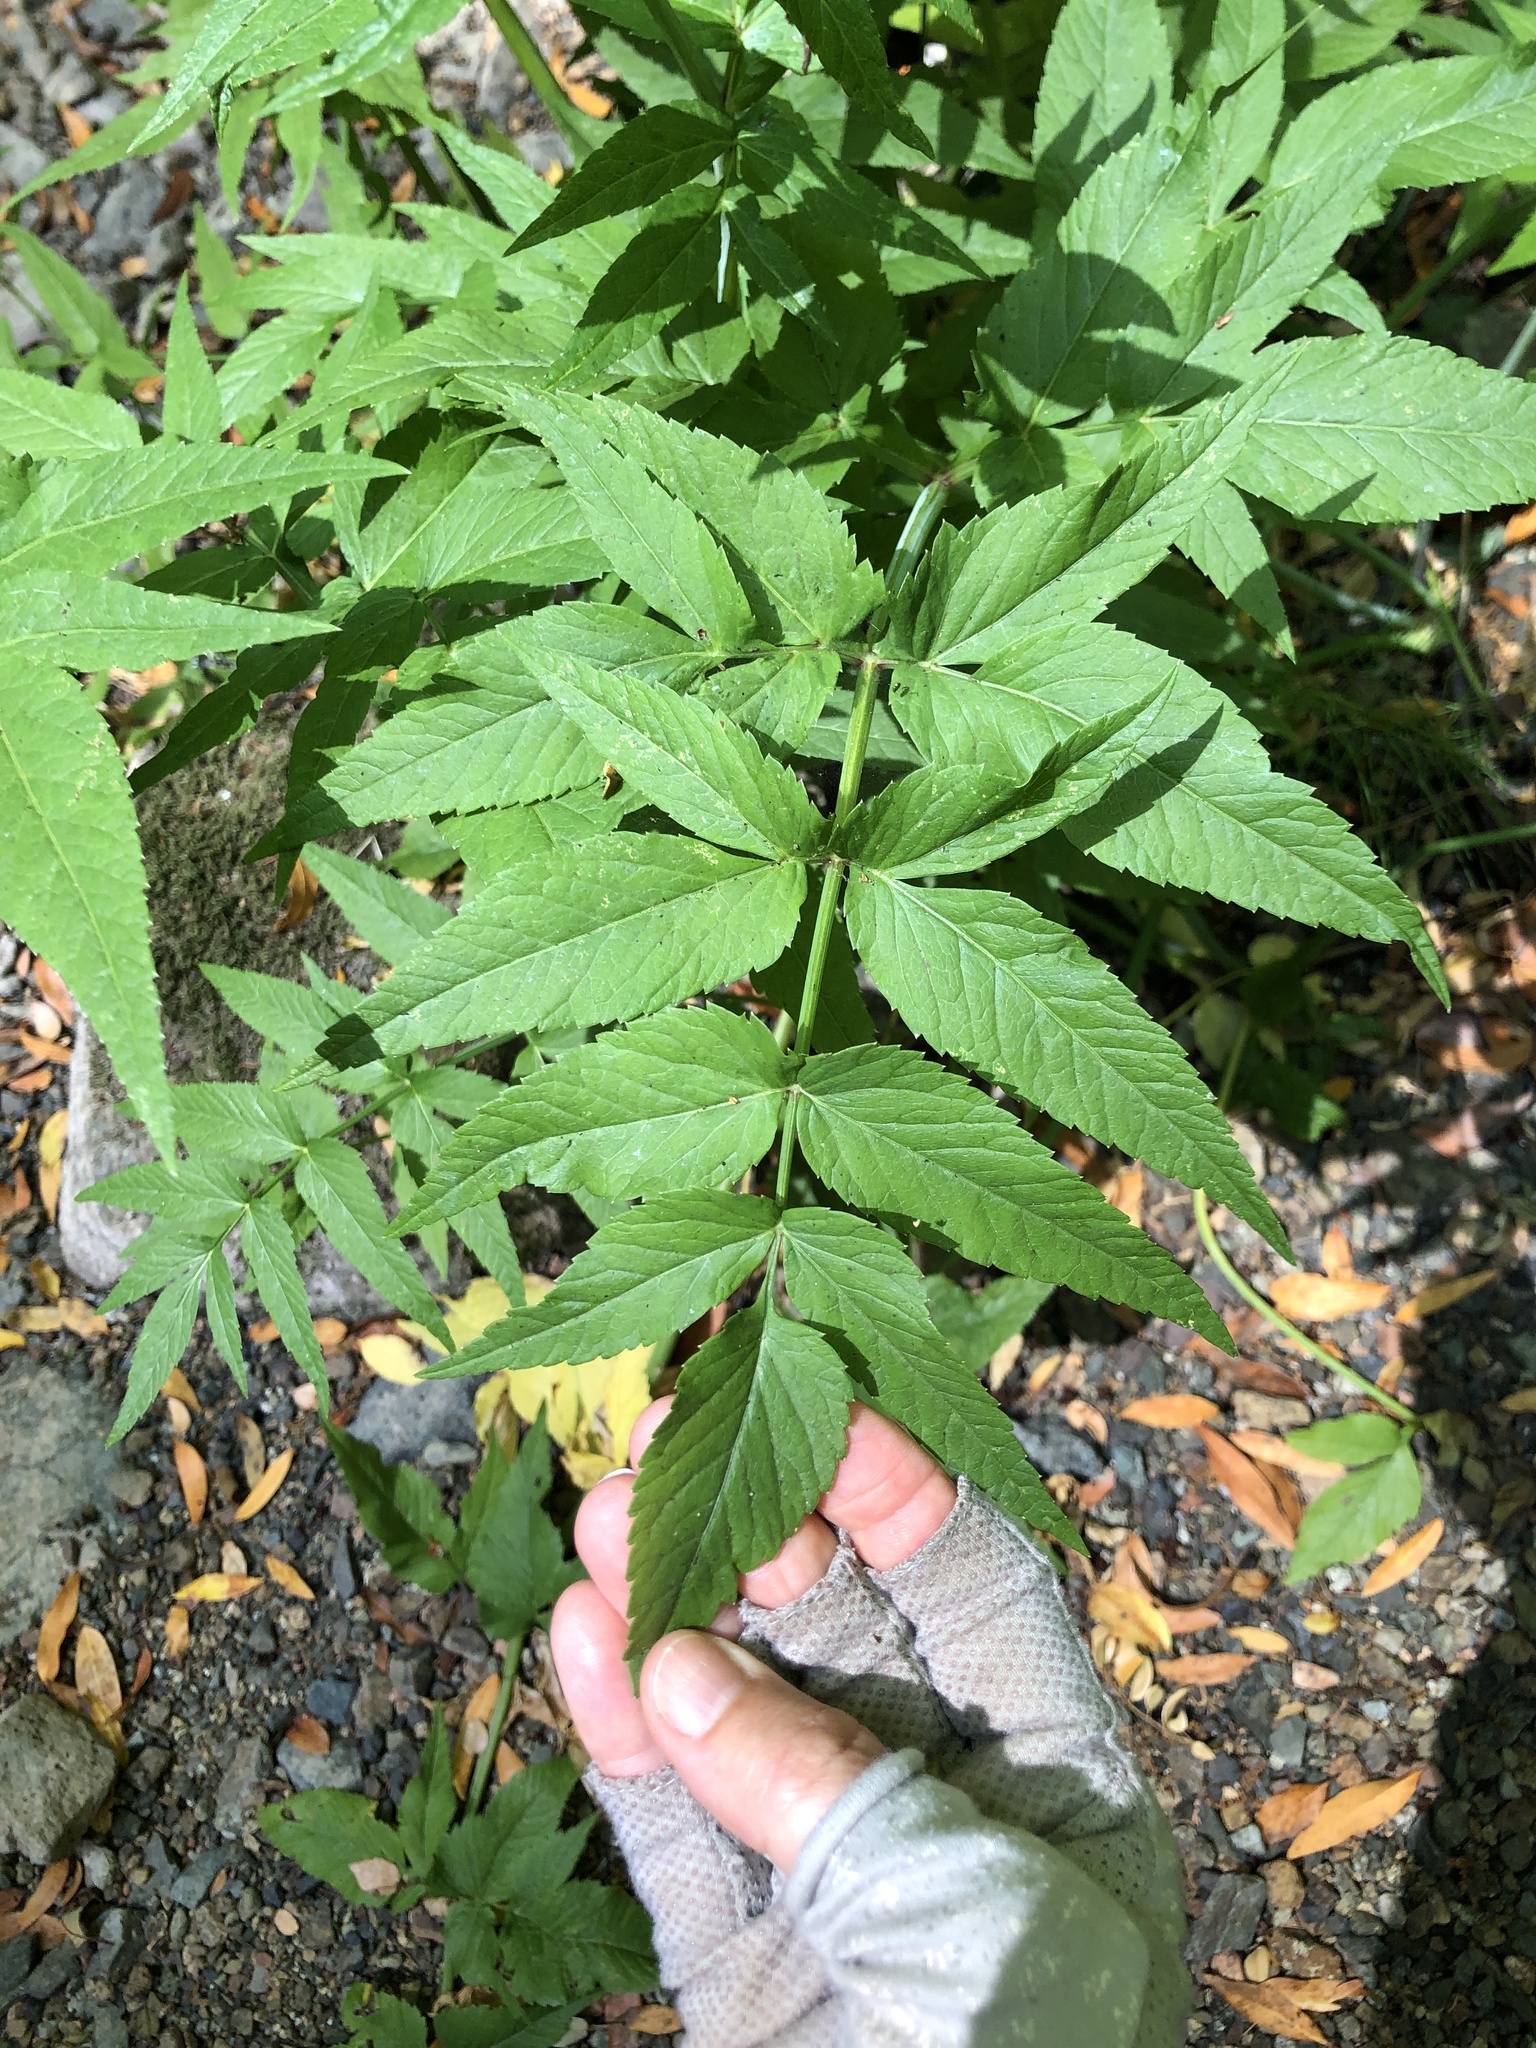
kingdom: Plantae
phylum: Tracheophyta
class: Magnoliopsida
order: Apiales
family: Apiaceae
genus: Cicuta
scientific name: Cicuta douglasii
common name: Western water-hemlock
